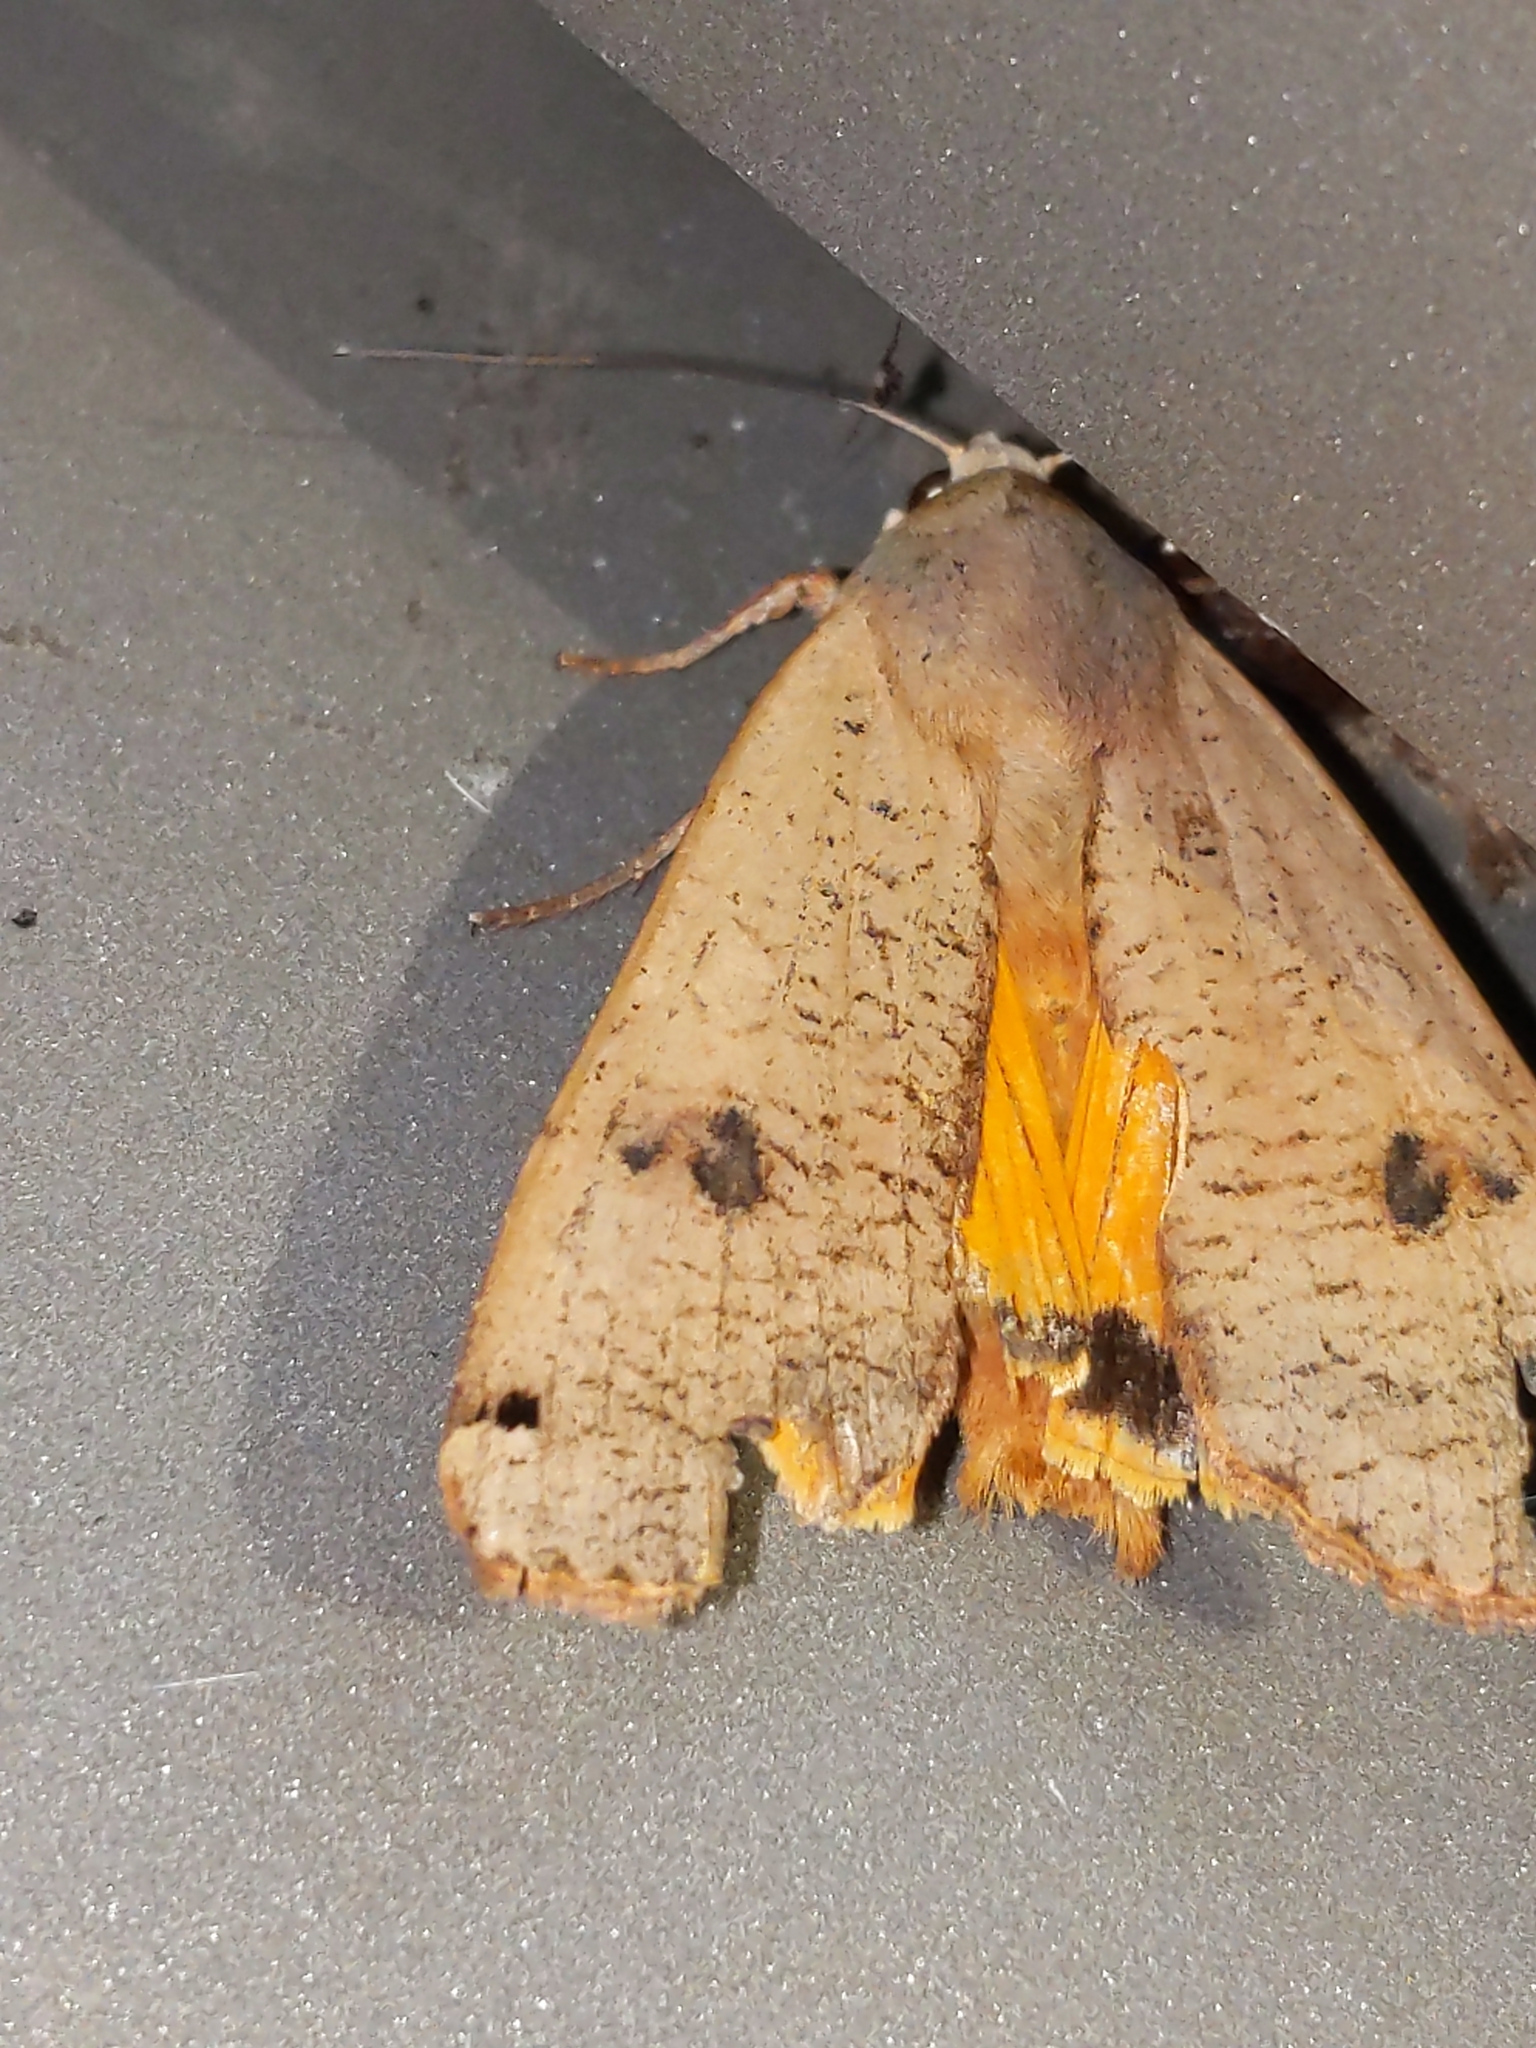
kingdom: Animalia
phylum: Arthropoda
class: Insecta
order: Lepidoptera
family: Noctuidae
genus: Noctua
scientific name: Noctua pronuba
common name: Large yellow underwing
